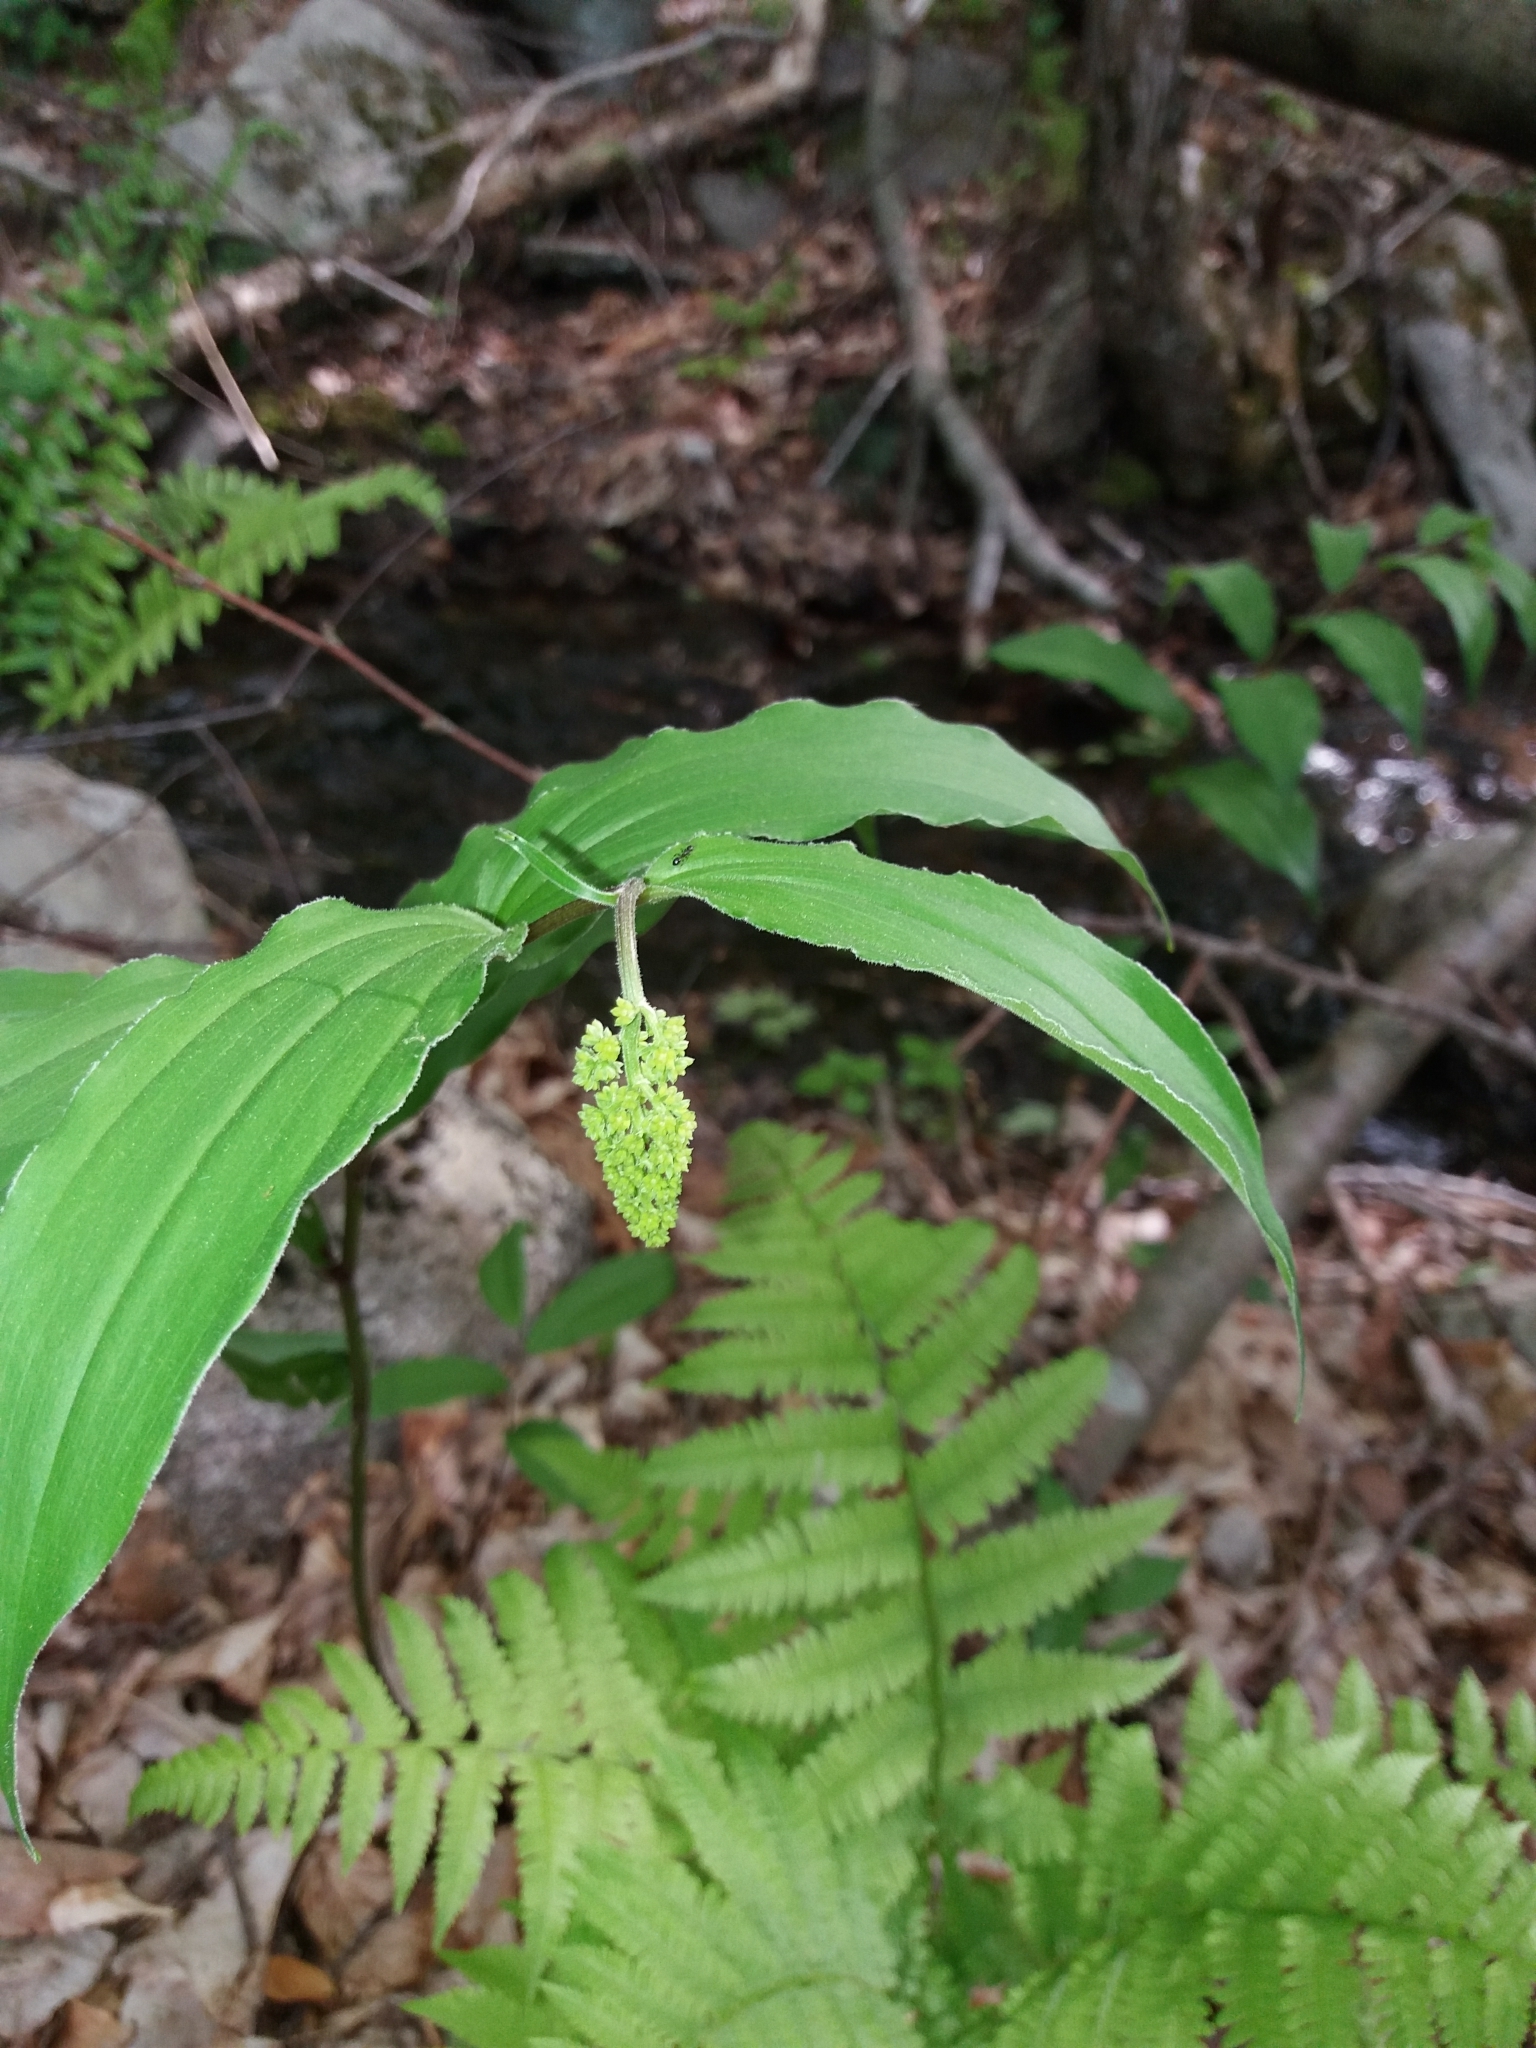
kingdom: Plantae
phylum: Tracheophyta
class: Liliopsida
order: Asparagales
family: Asparagaceae
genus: Maianthemum
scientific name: Maianthemum racemosum
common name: False spikenard
